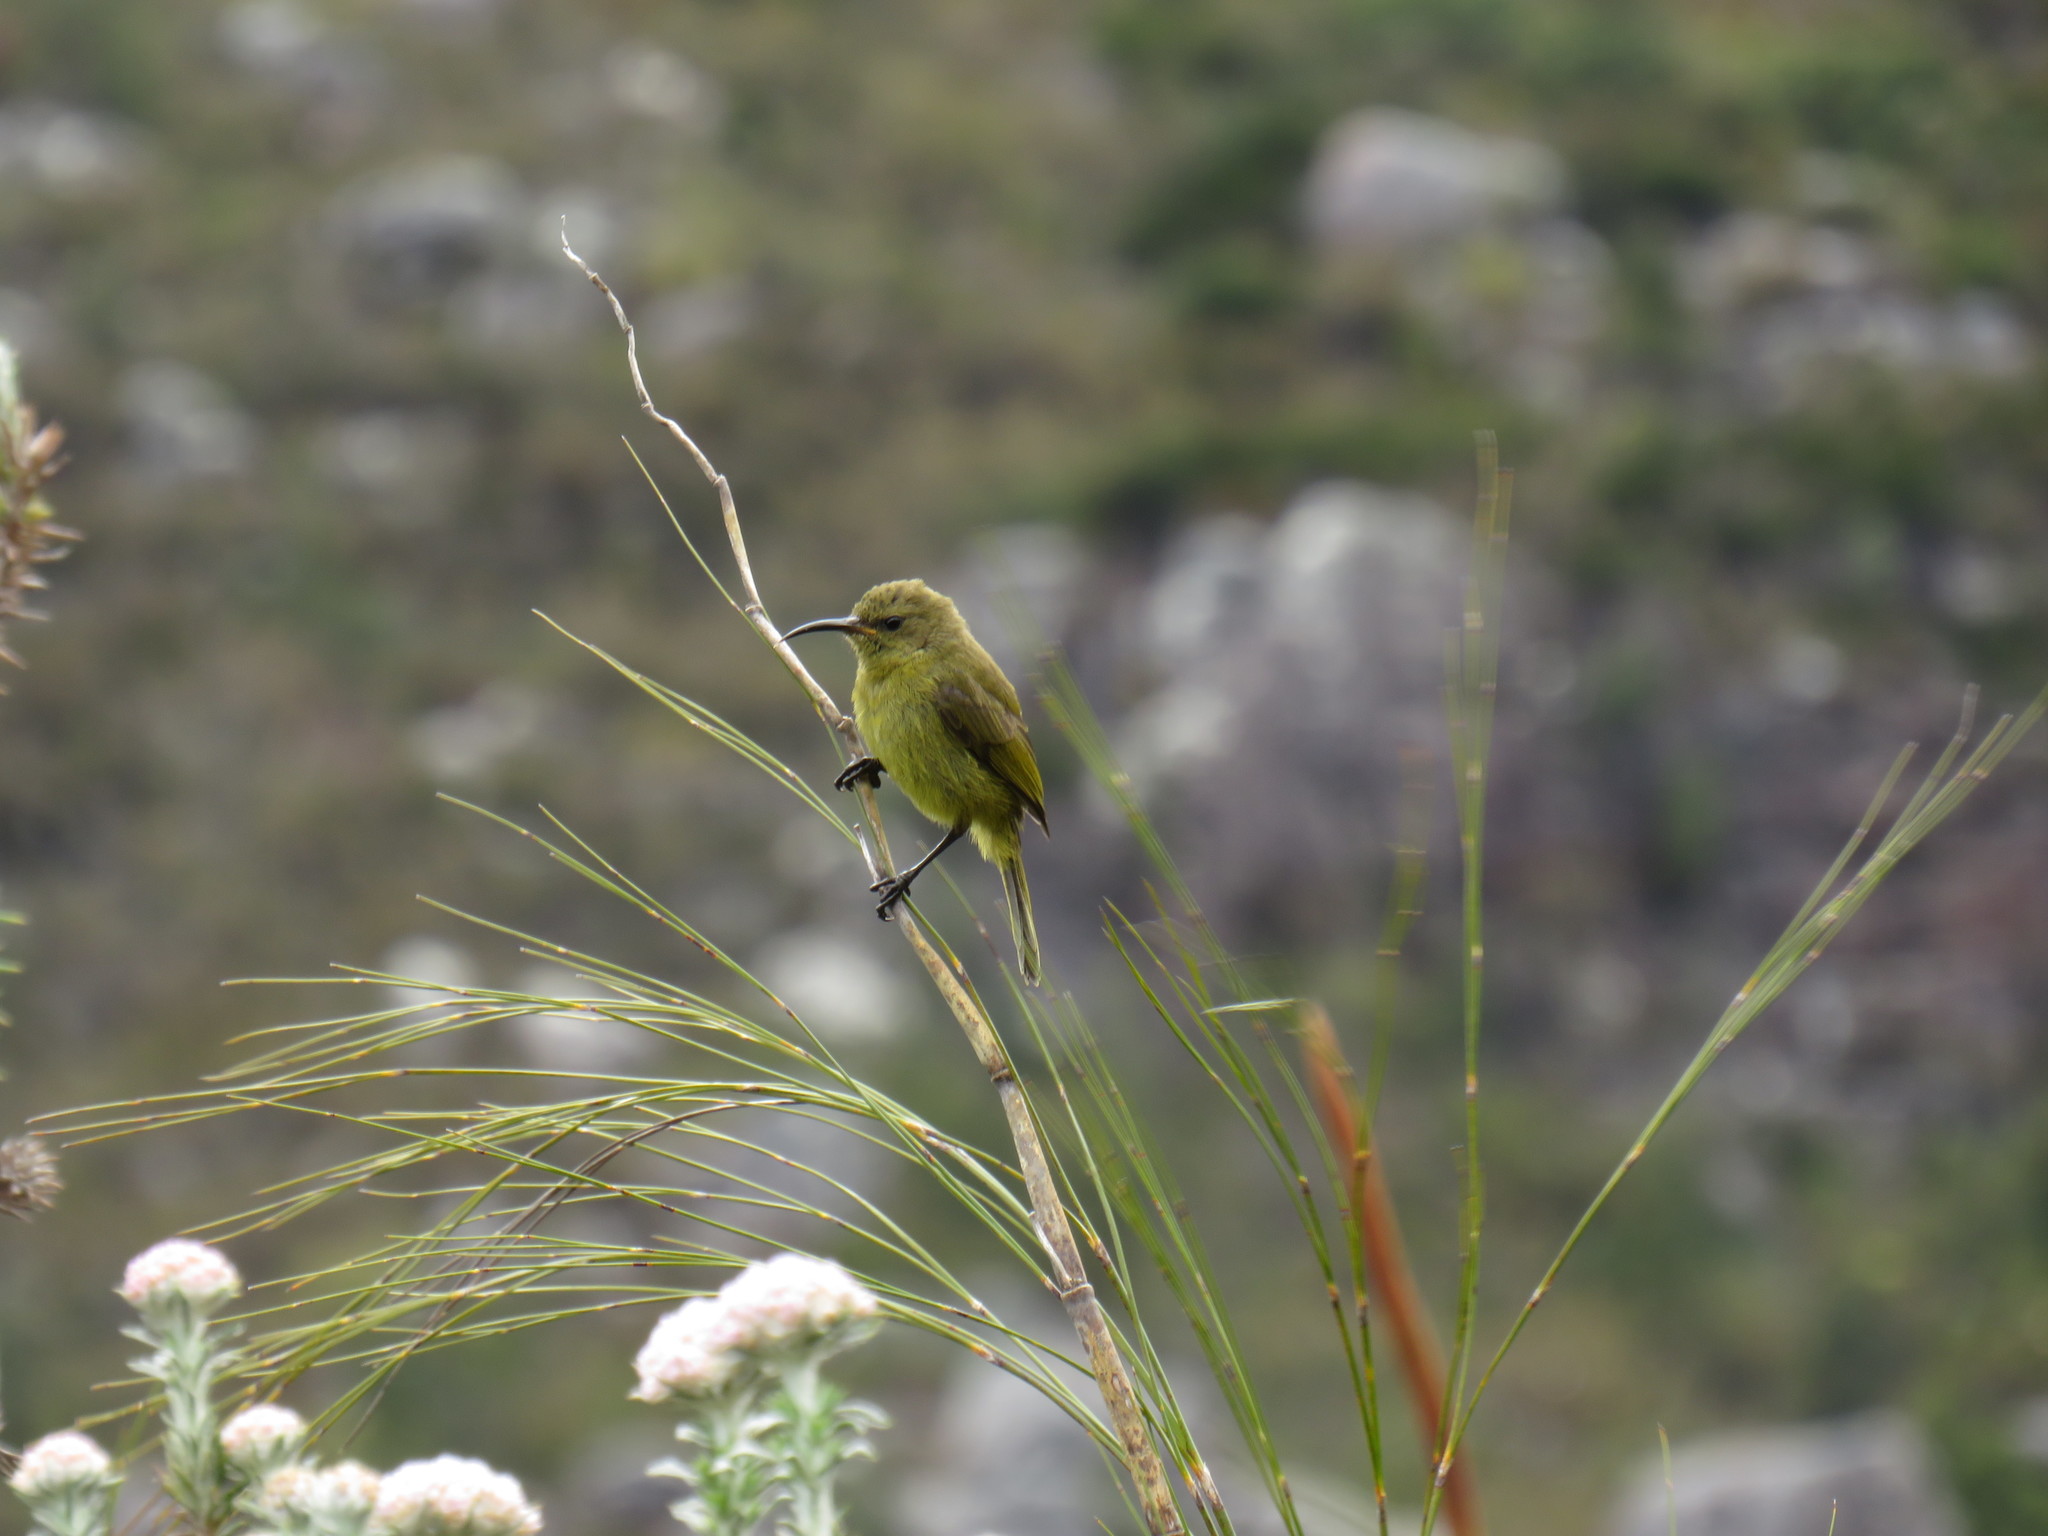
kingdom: Animalia
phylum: Chordata
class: Aves
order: Passeriformes
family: Nectariniidae
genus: Anthobaphes
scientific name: Anthobaphes violacea
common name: Orange-breasted sunbird
